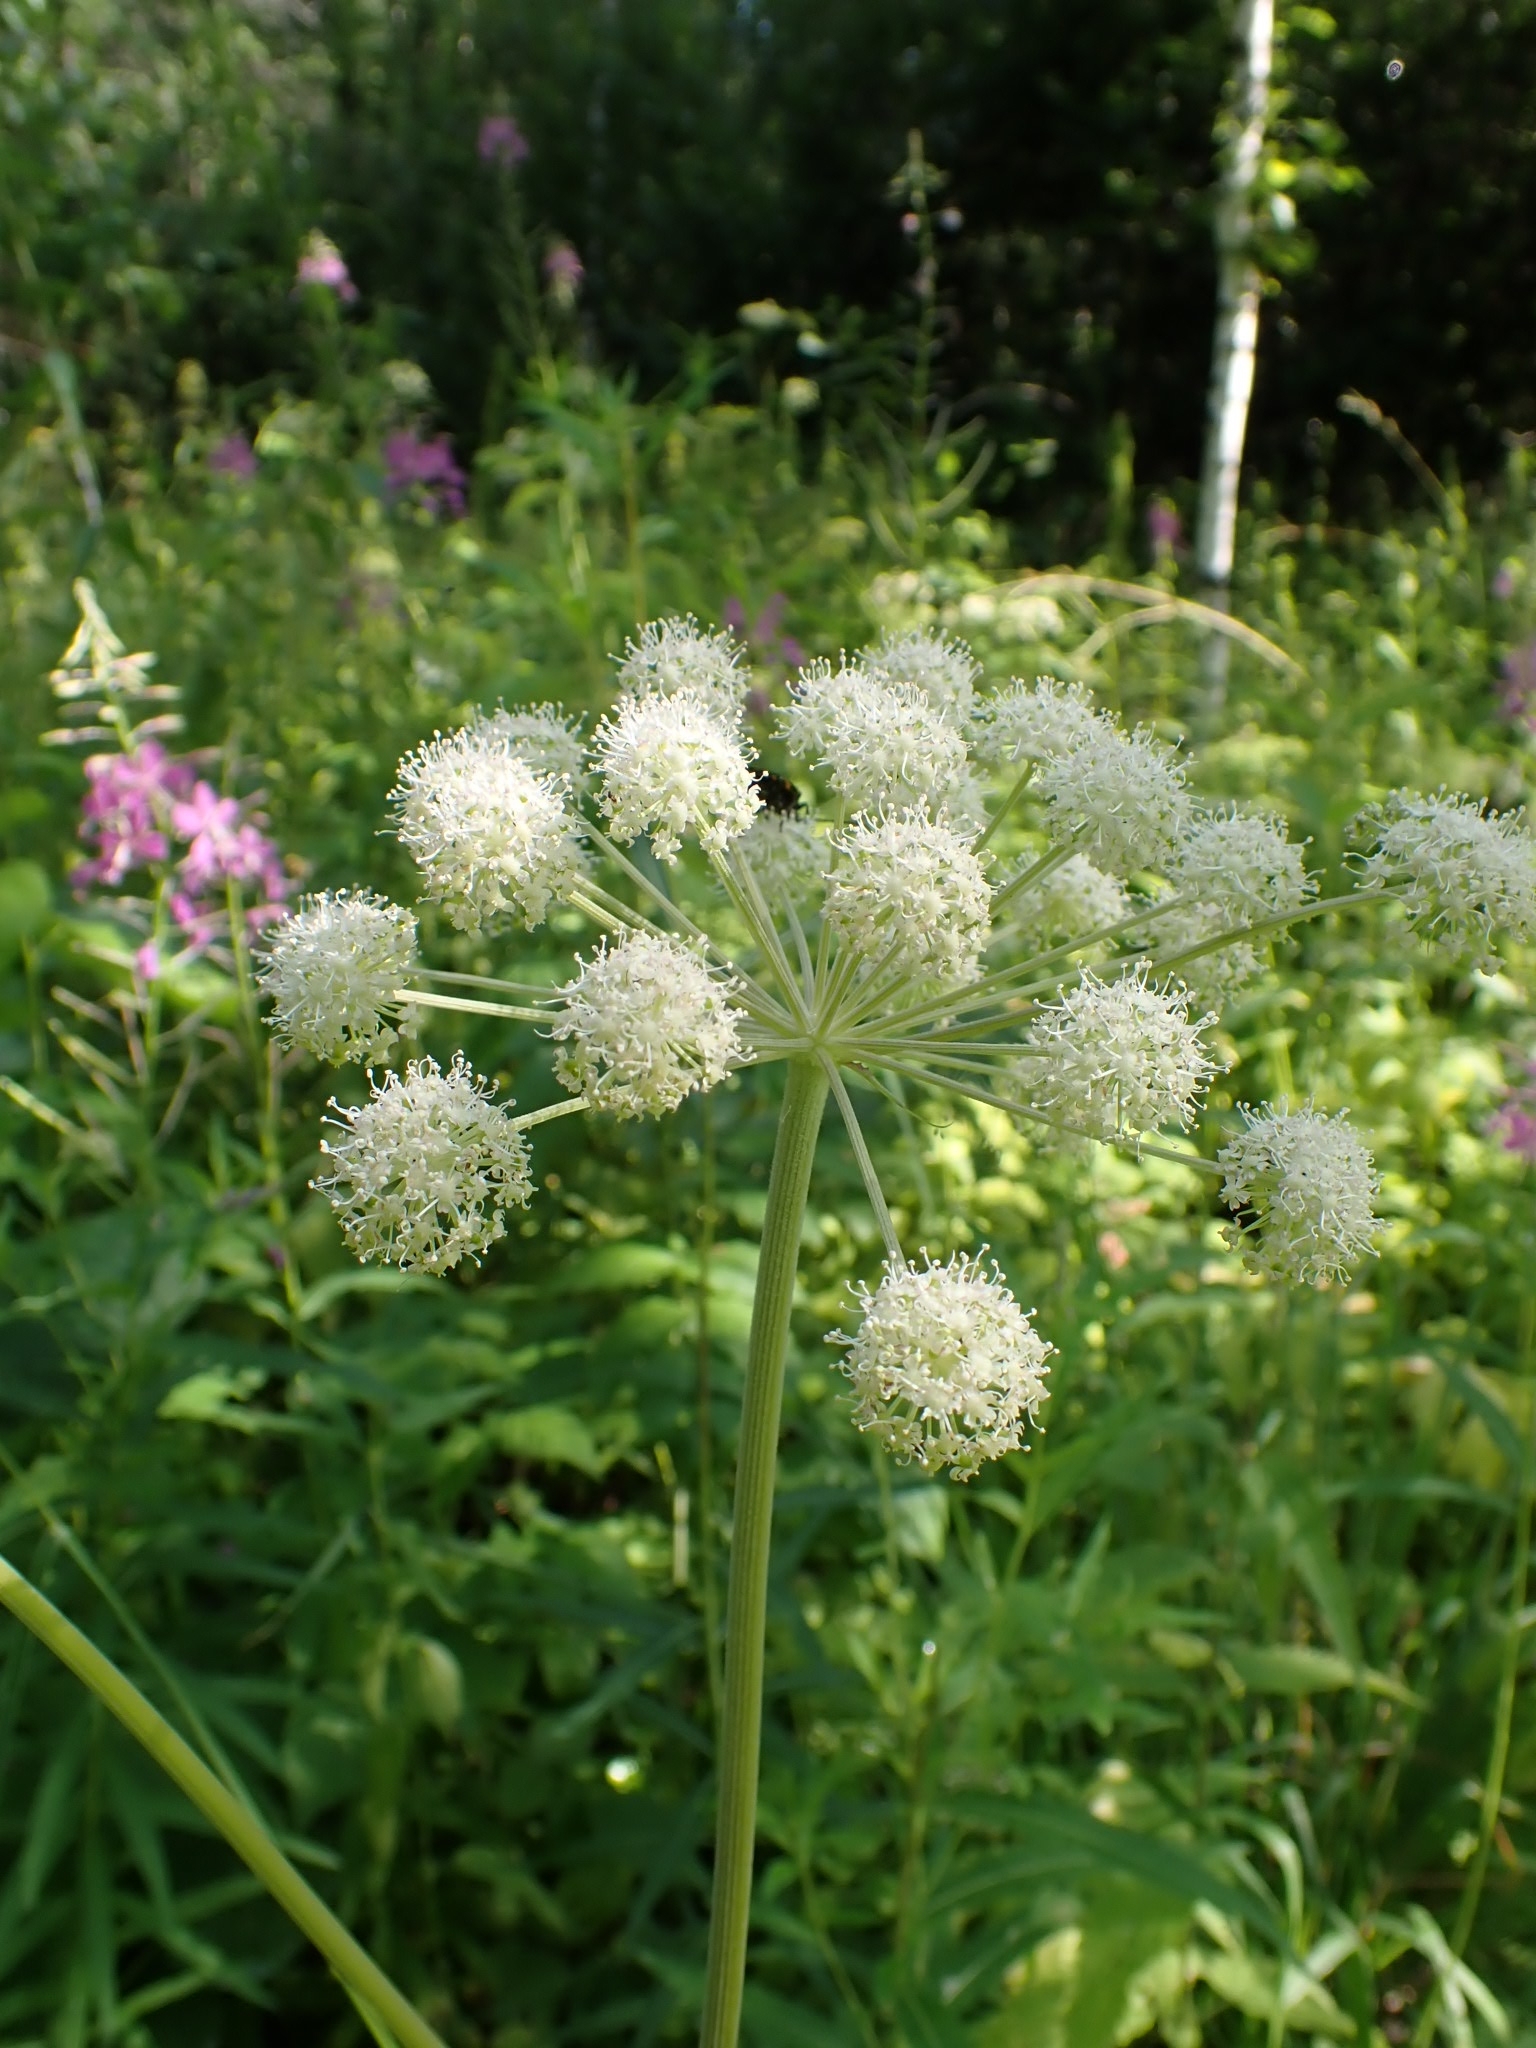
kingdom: Plantae
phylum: Tracheophyta
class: Magnoliopsida
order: Apiales
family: Apiaceae
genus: Angelica
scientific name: Angelica sylvestris
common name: Wild angelica
